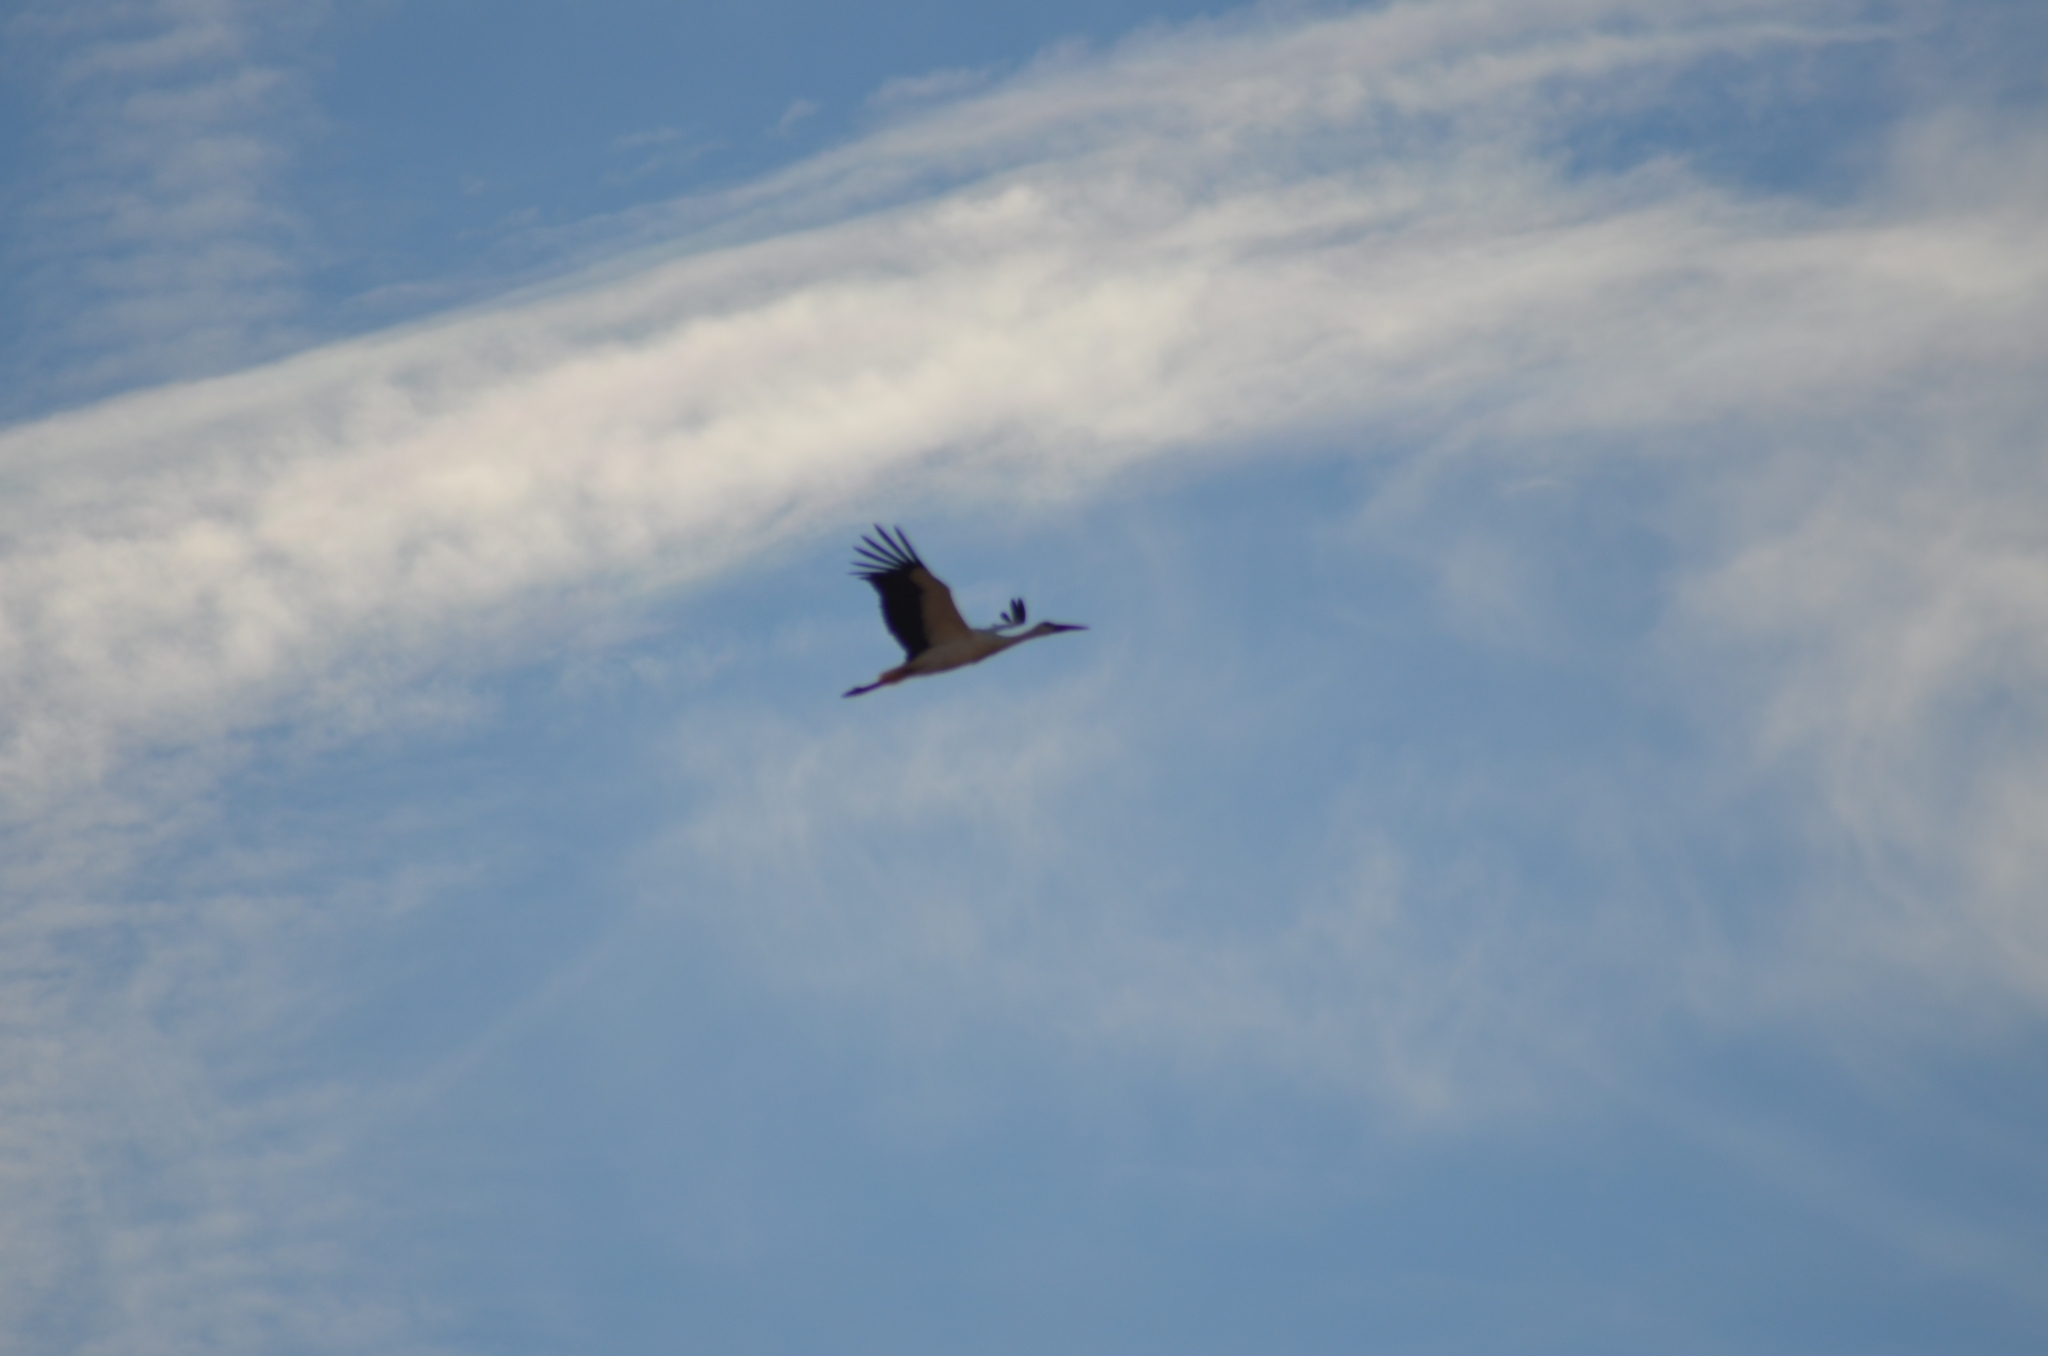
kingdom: Animalia
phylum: Chordata
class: Aves
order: Ciconiiformes
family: Ciconiidae
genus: Ciconia
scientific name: Ciconia ciconia
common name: White stork
